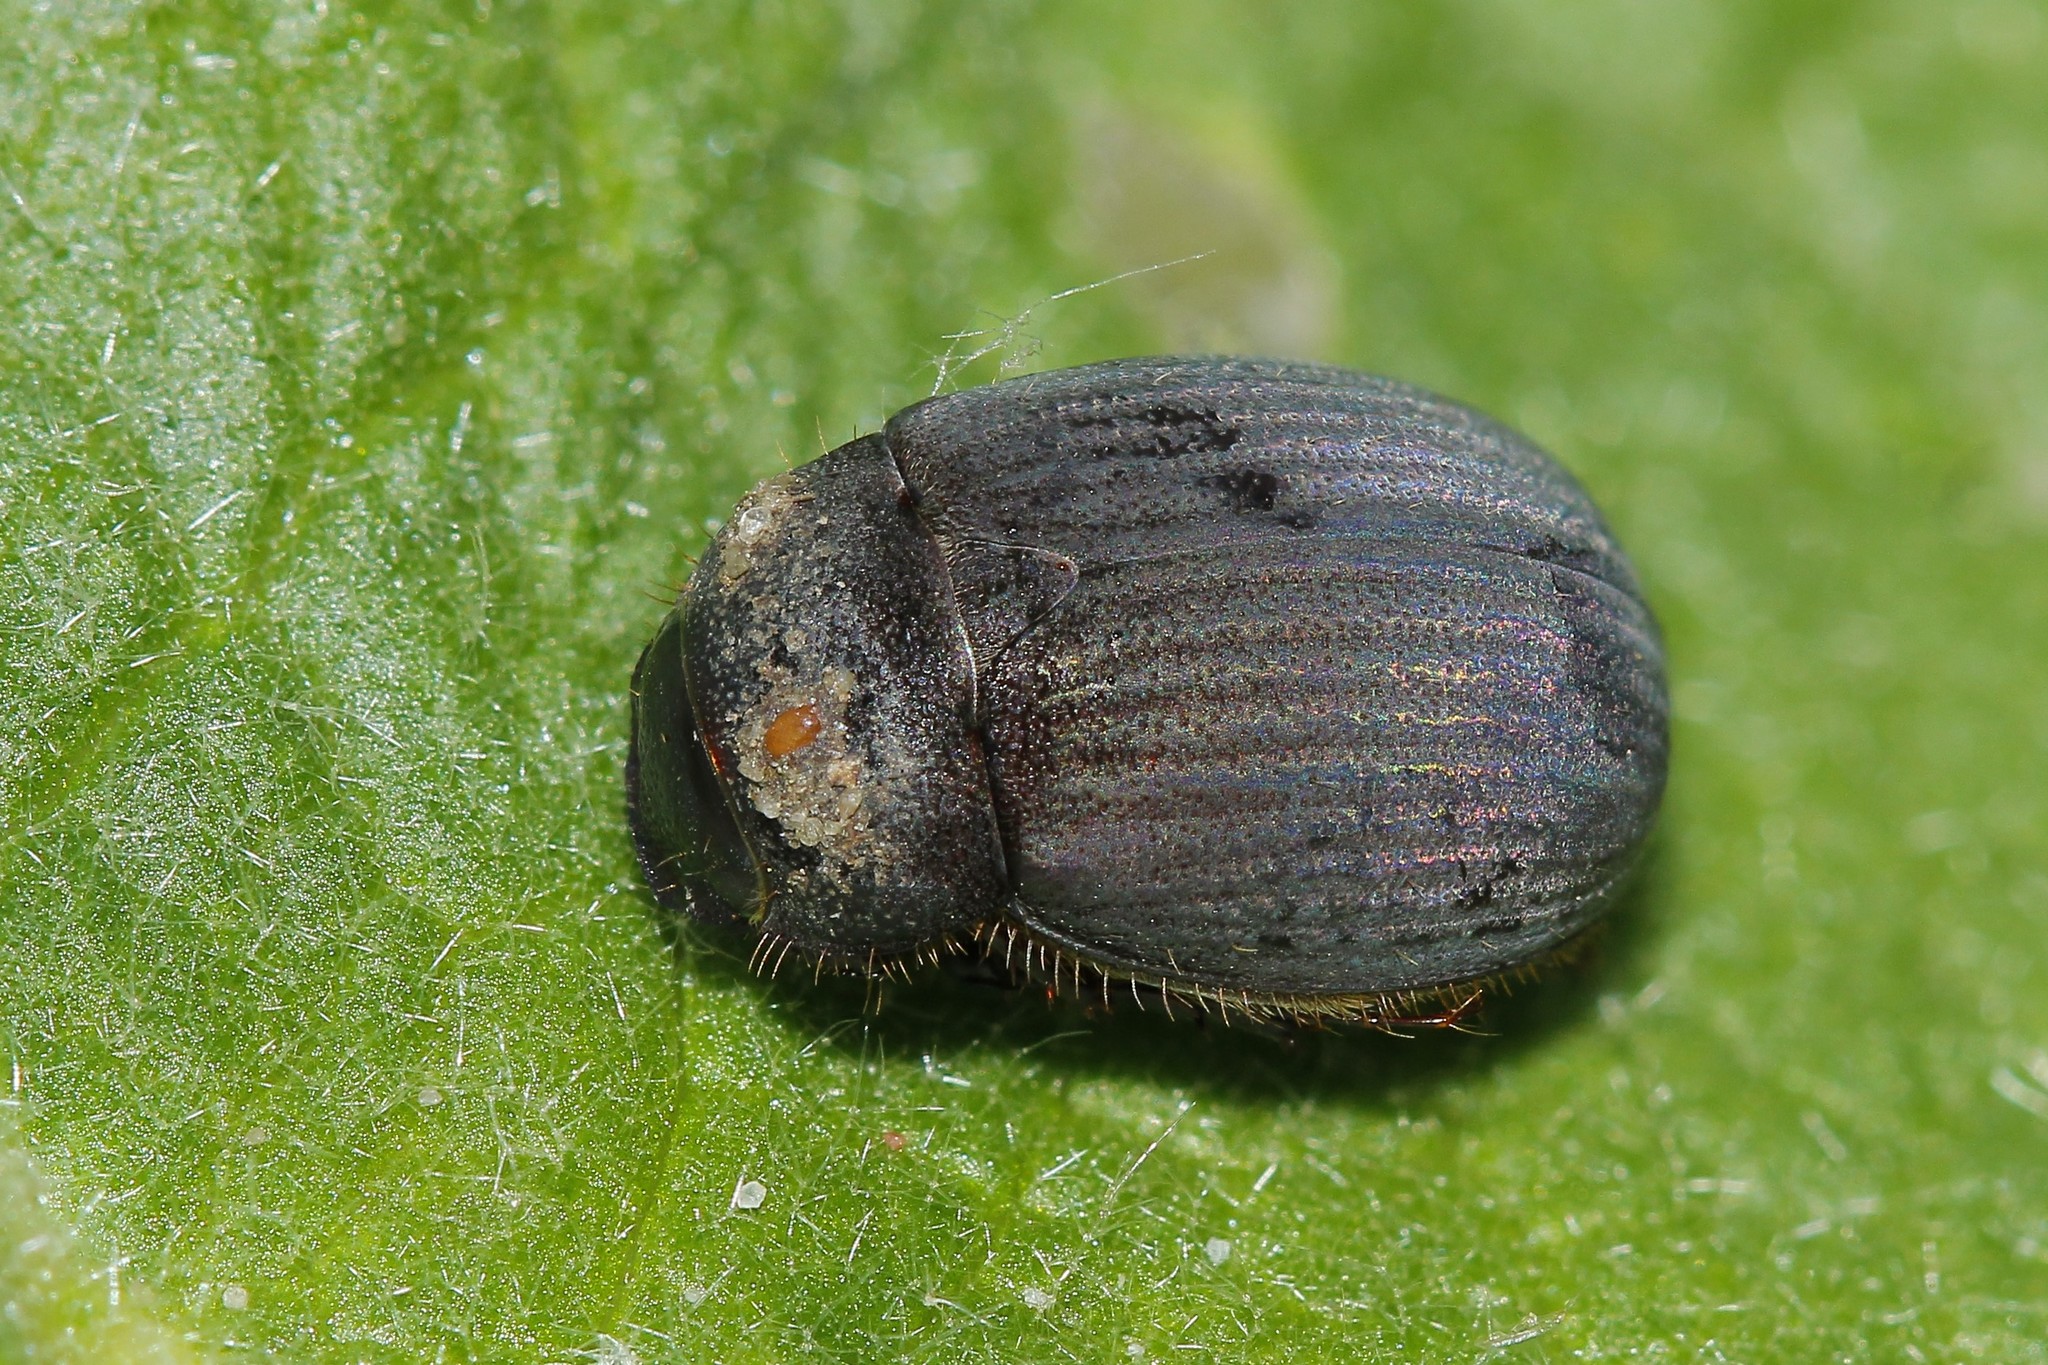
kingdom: Animalia
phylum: Arthropoda
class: Insecta
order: Coleoptera
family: Scarabaeidae
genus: Maladera
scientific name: Maladera holosericea
